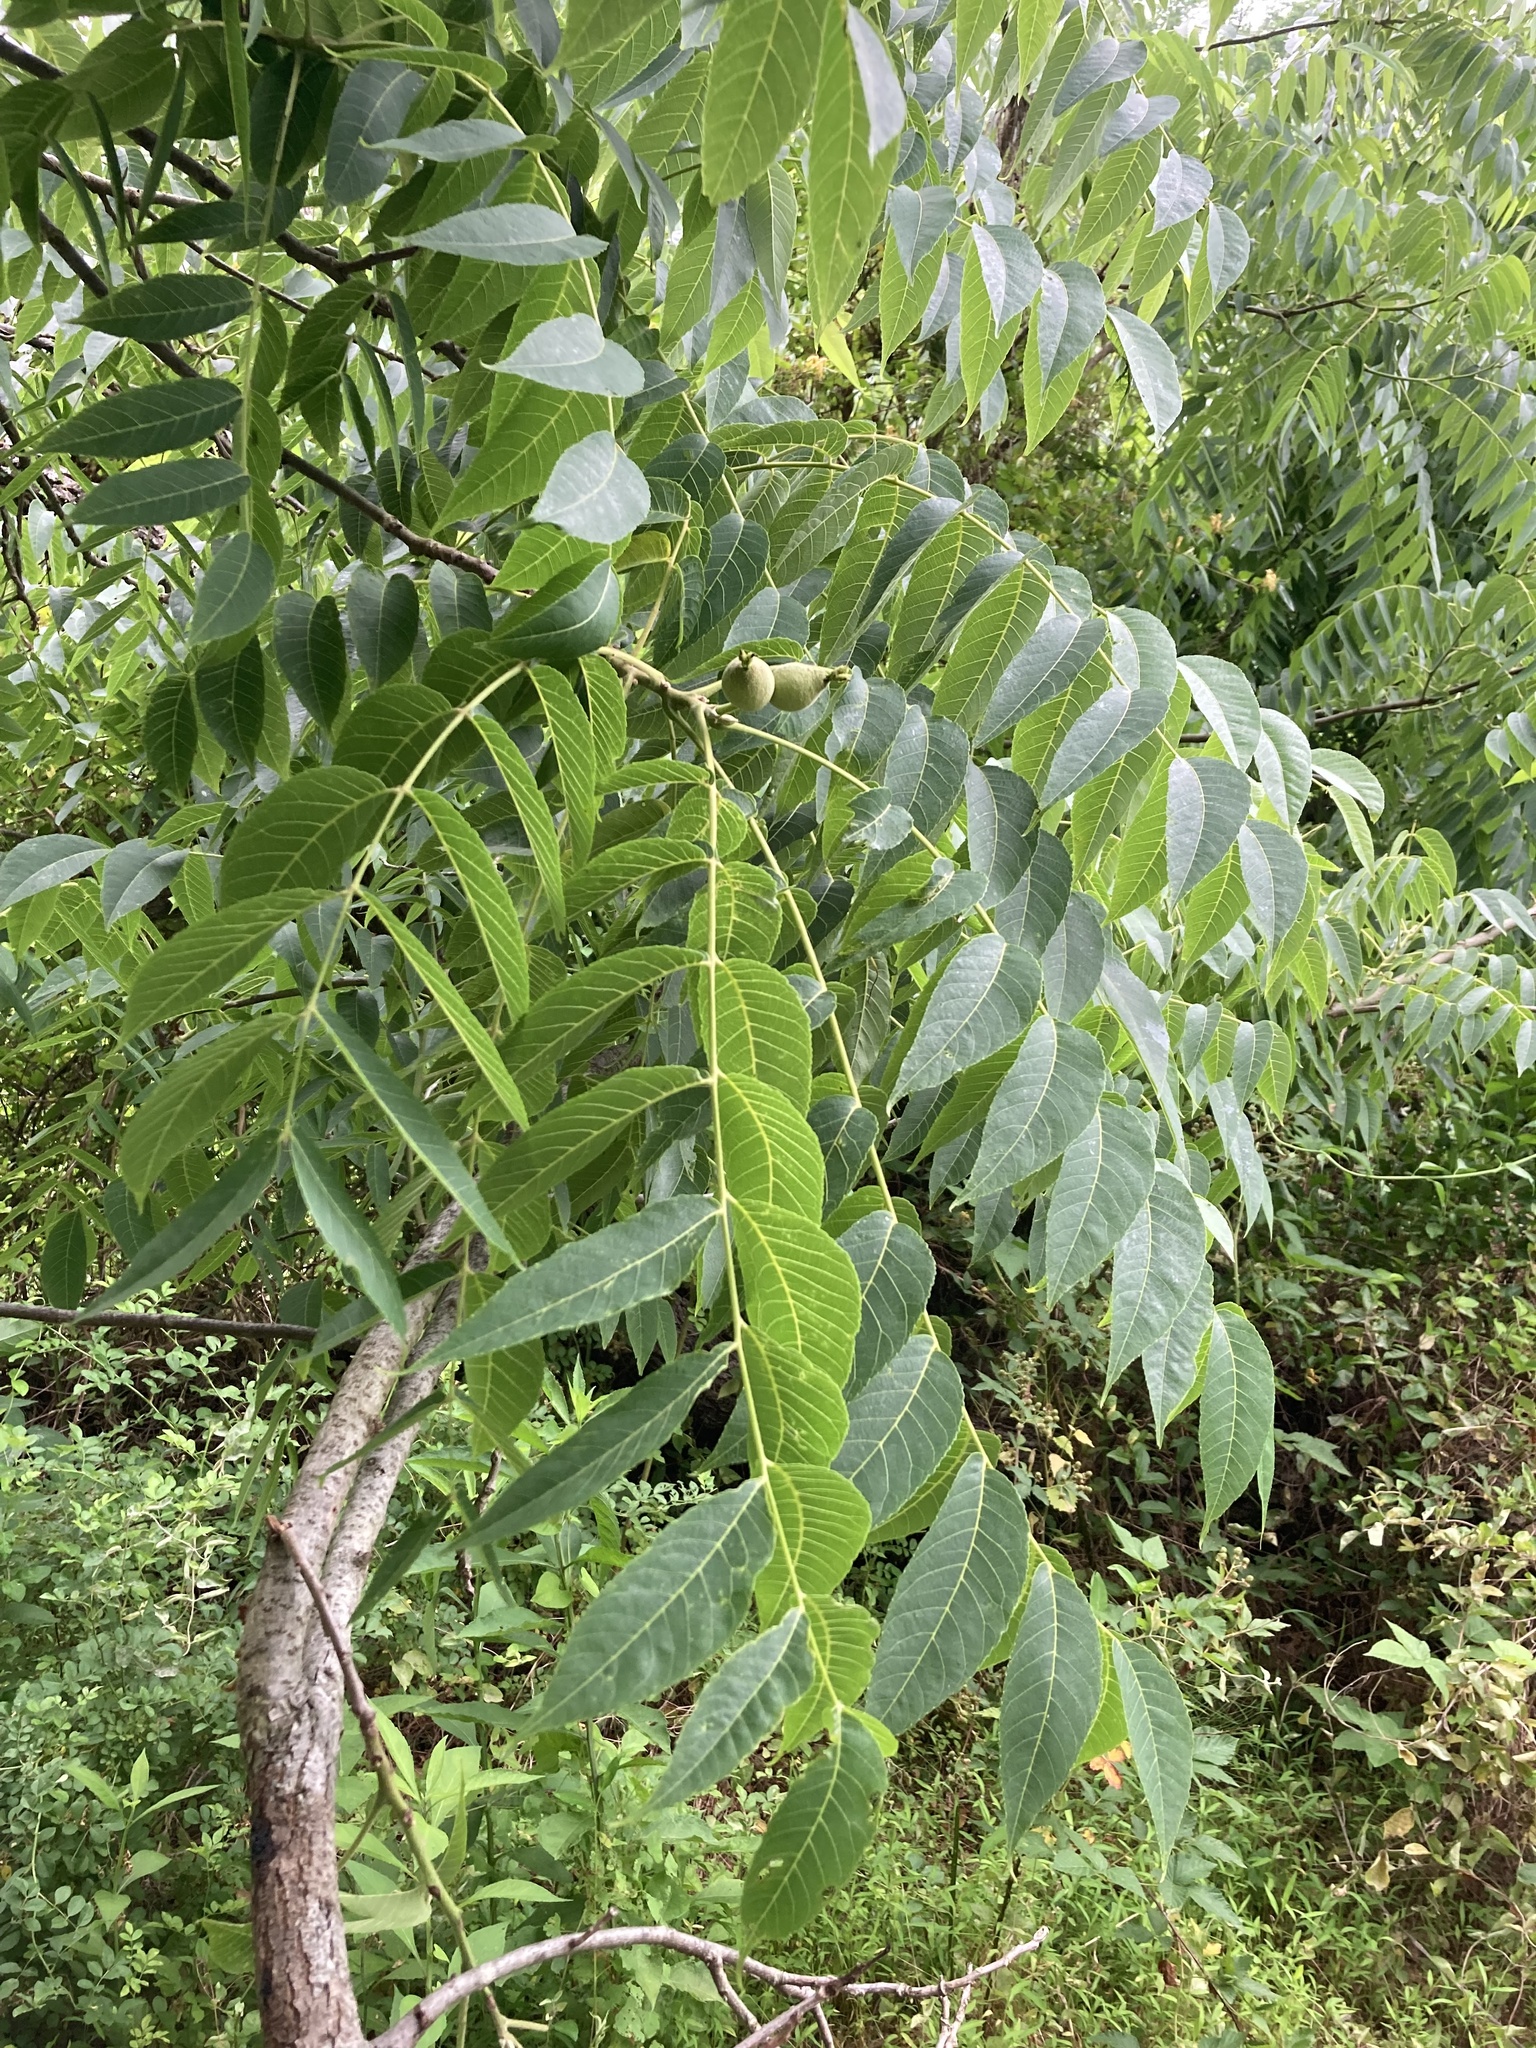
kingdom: Plantae
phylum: Tracheophyta
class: Magnoliopsida
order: Fagales
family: Juglandaceae
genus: Juglans
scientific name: Juglans nigra
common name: Black walnut
